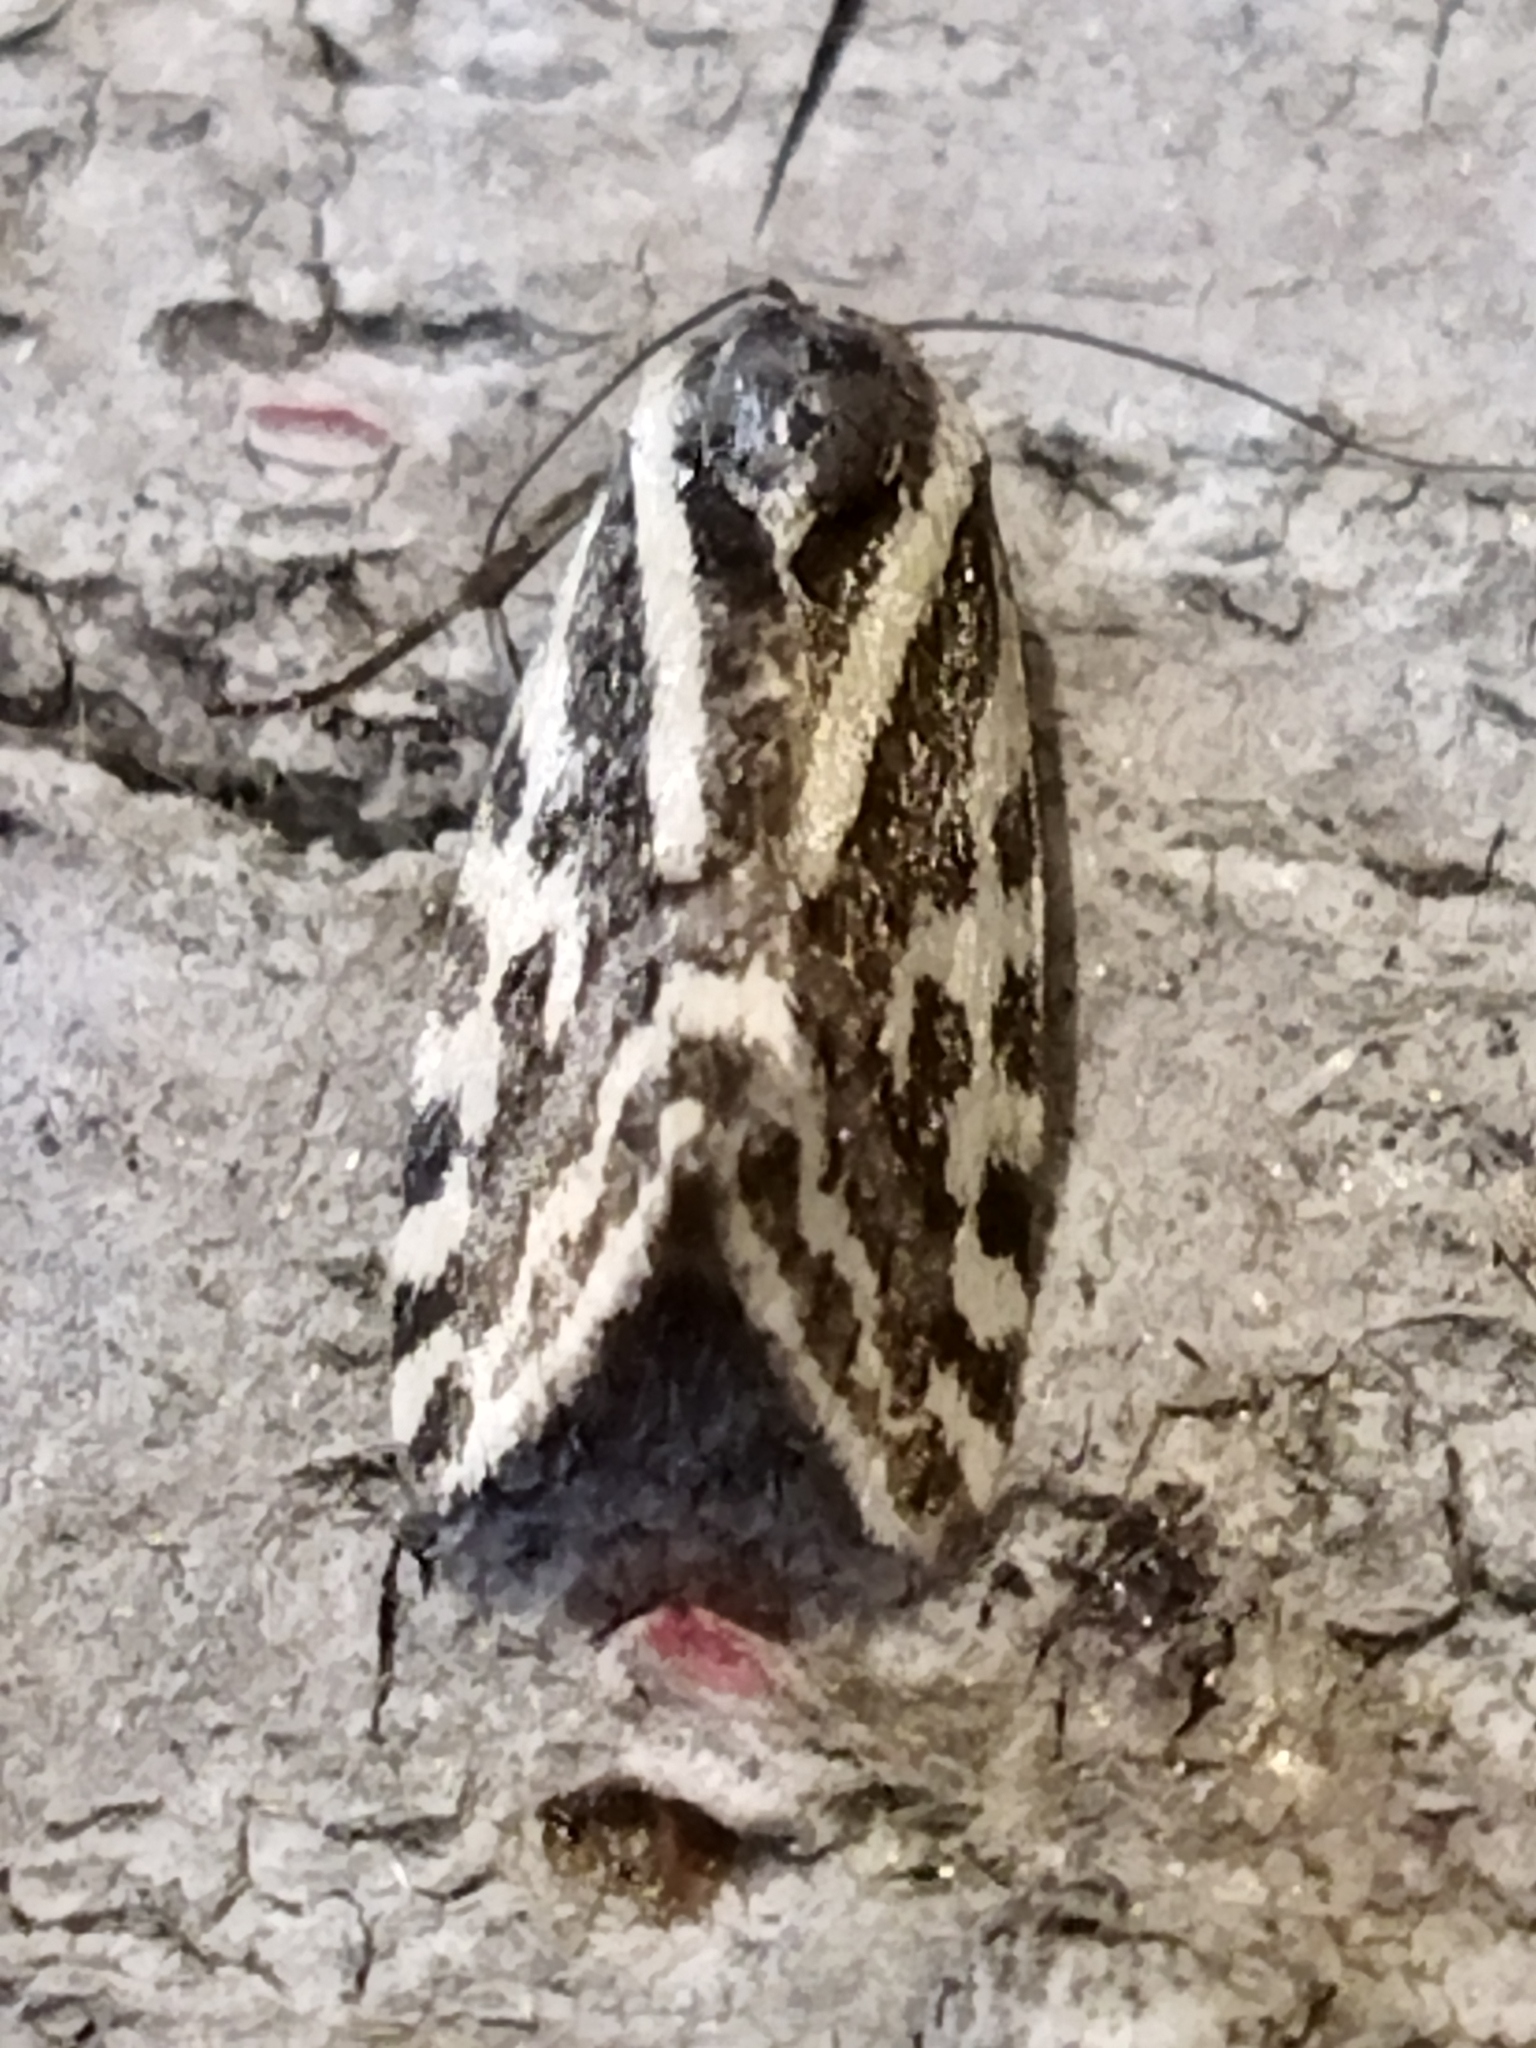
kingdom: Animalia
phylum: Arthropoda
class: Insecta
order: Lepidoptera
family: Noctuidae
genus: Acontia
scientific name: Acontia trabealis
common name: Spotted sulphur
